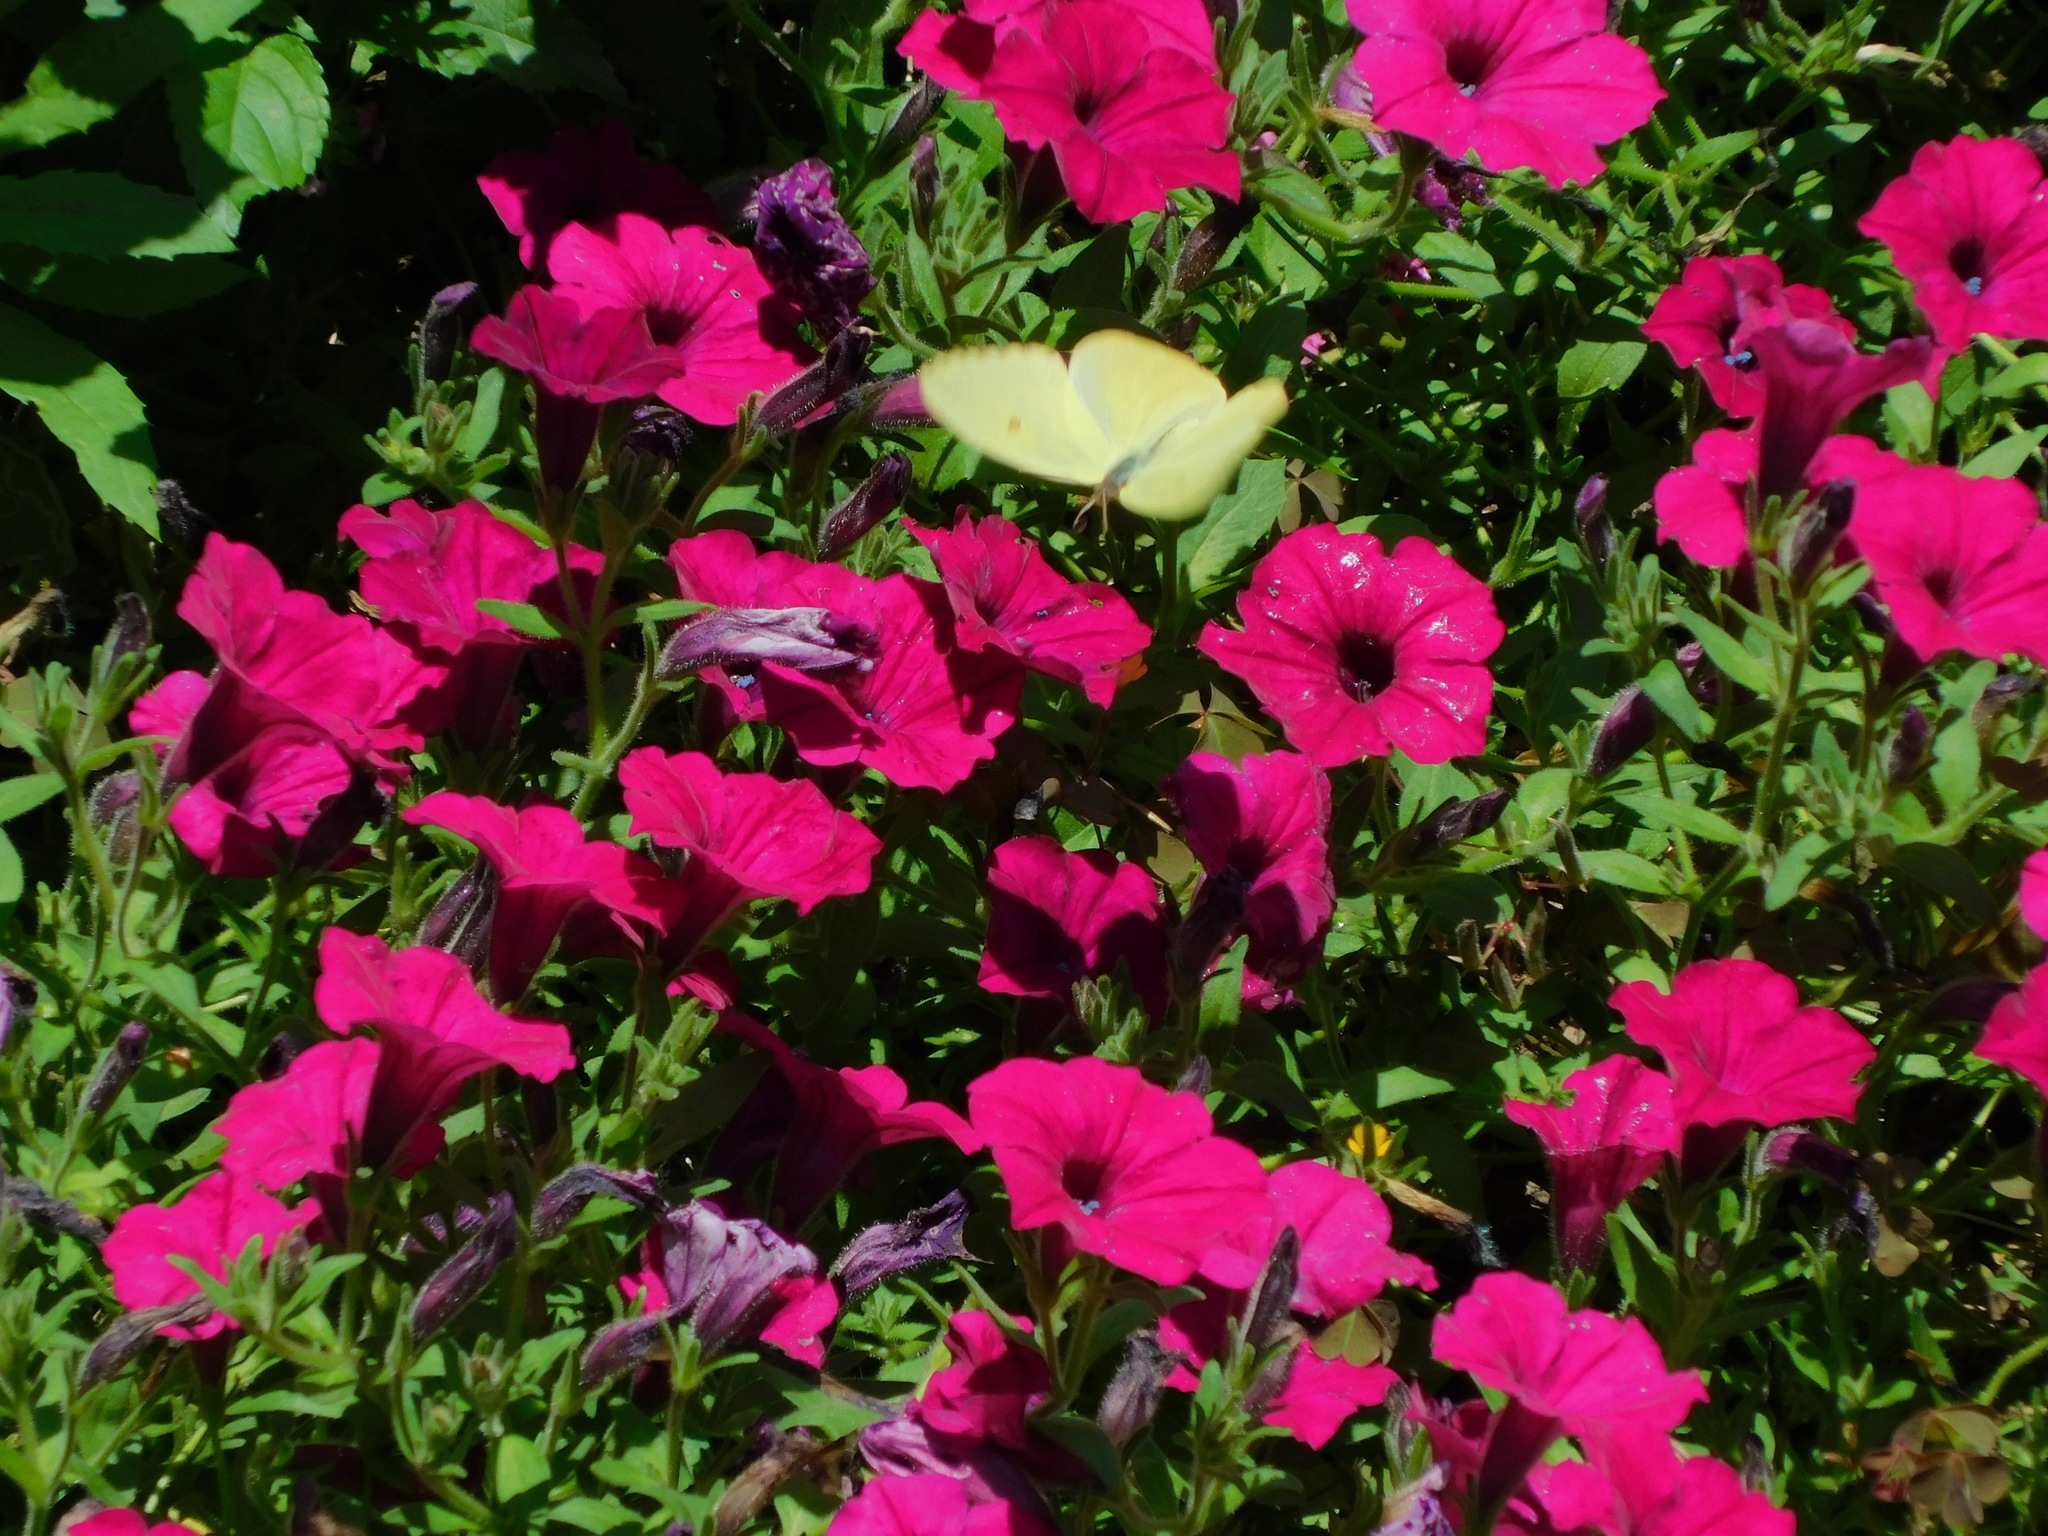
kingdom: Animalia
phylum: Arthropoda
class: Insecta
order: Lepidoptera
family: Pieridae
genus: Phoebis
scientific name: Phoebis sennae
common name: Cloudless sulphur
